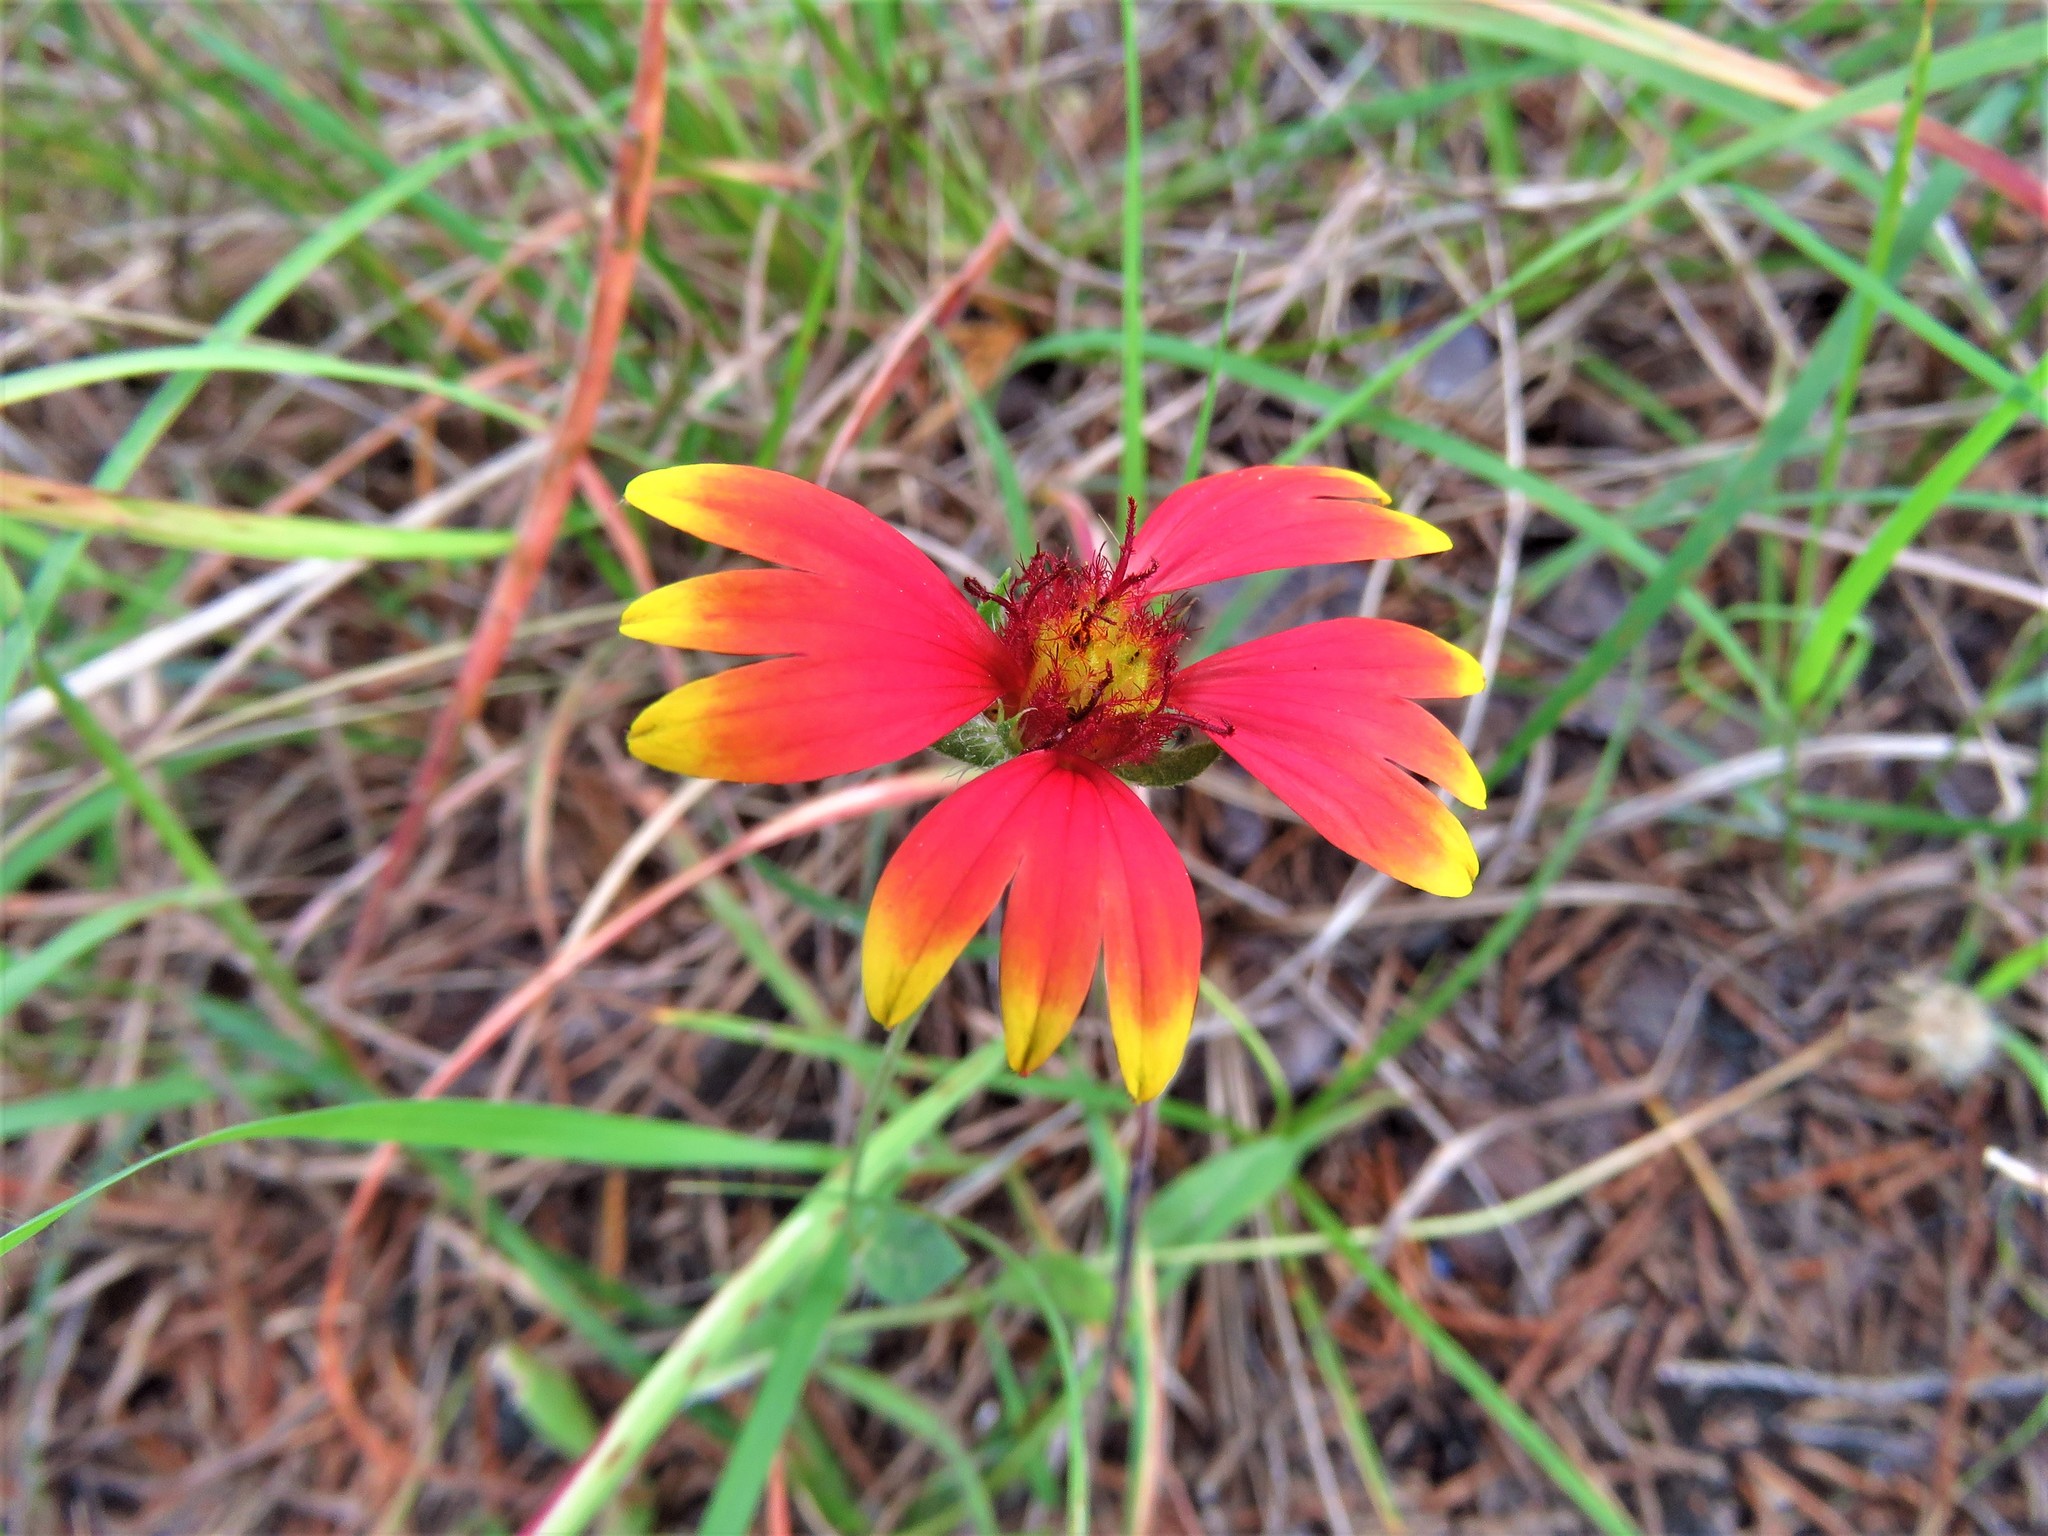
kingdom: Plantae
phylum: Tracheophyta
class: Magnoliopsida
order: Asterales
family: Asteraceae
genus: Gaillardia
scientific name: Gaillardia pulchella
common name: Firewheel
